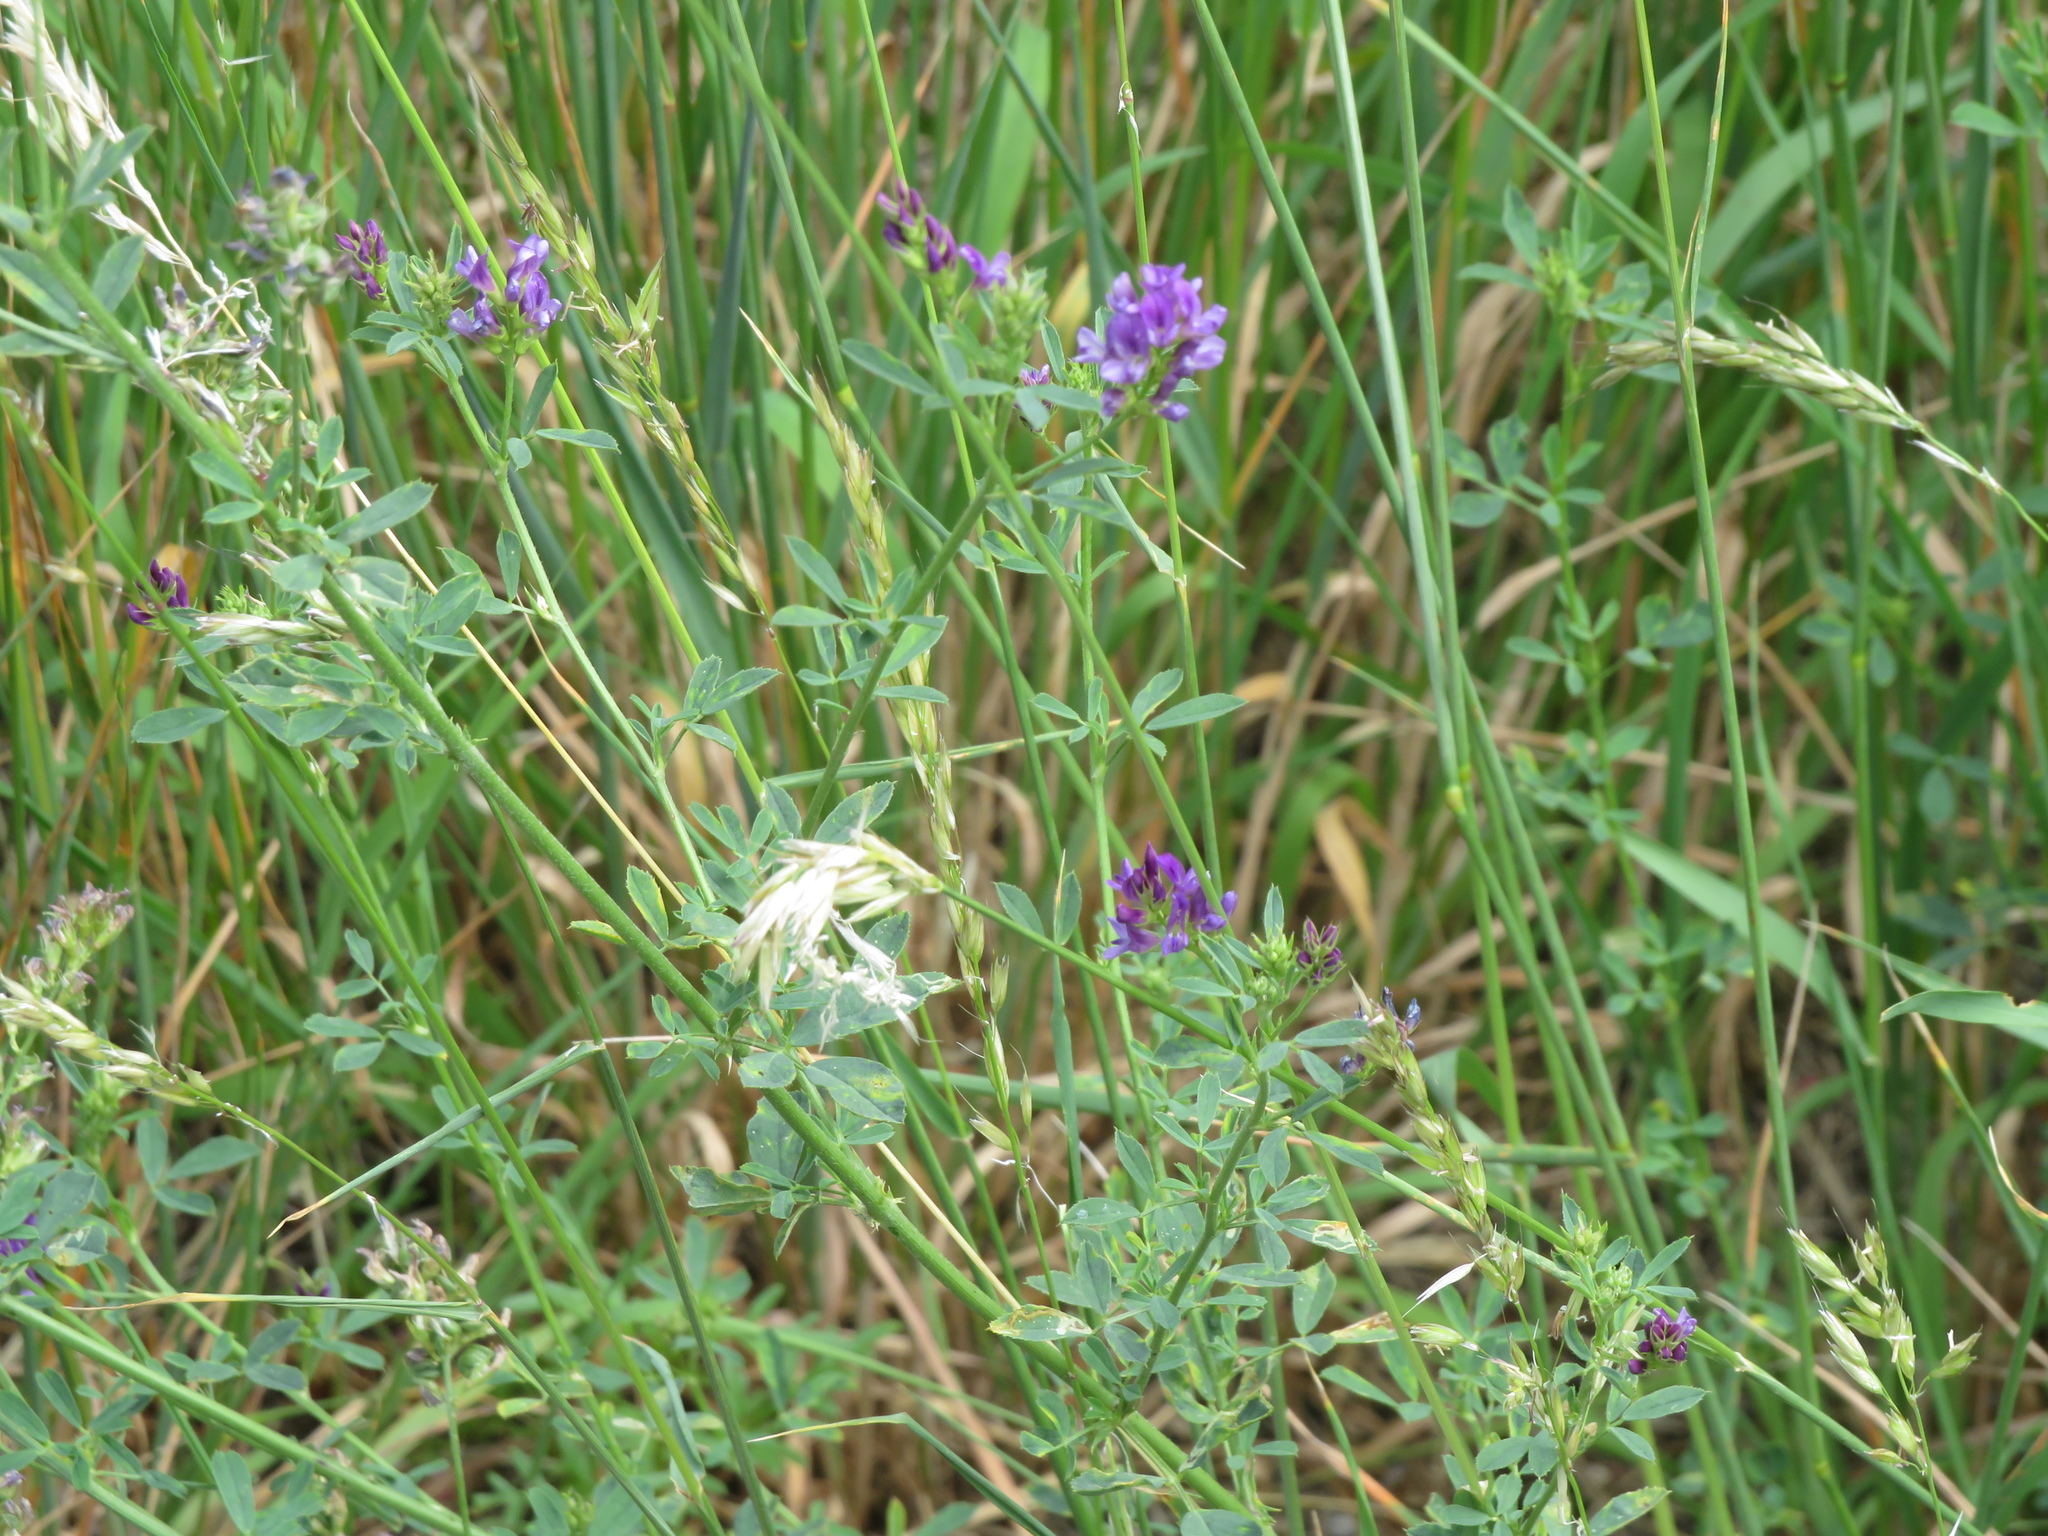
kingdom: Plantae
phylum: Tracheophyta
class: Magnoliopsida
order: Fabales
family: Fabaceae
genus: Medicago
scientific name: Medicago sativa
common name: Alfalfa
